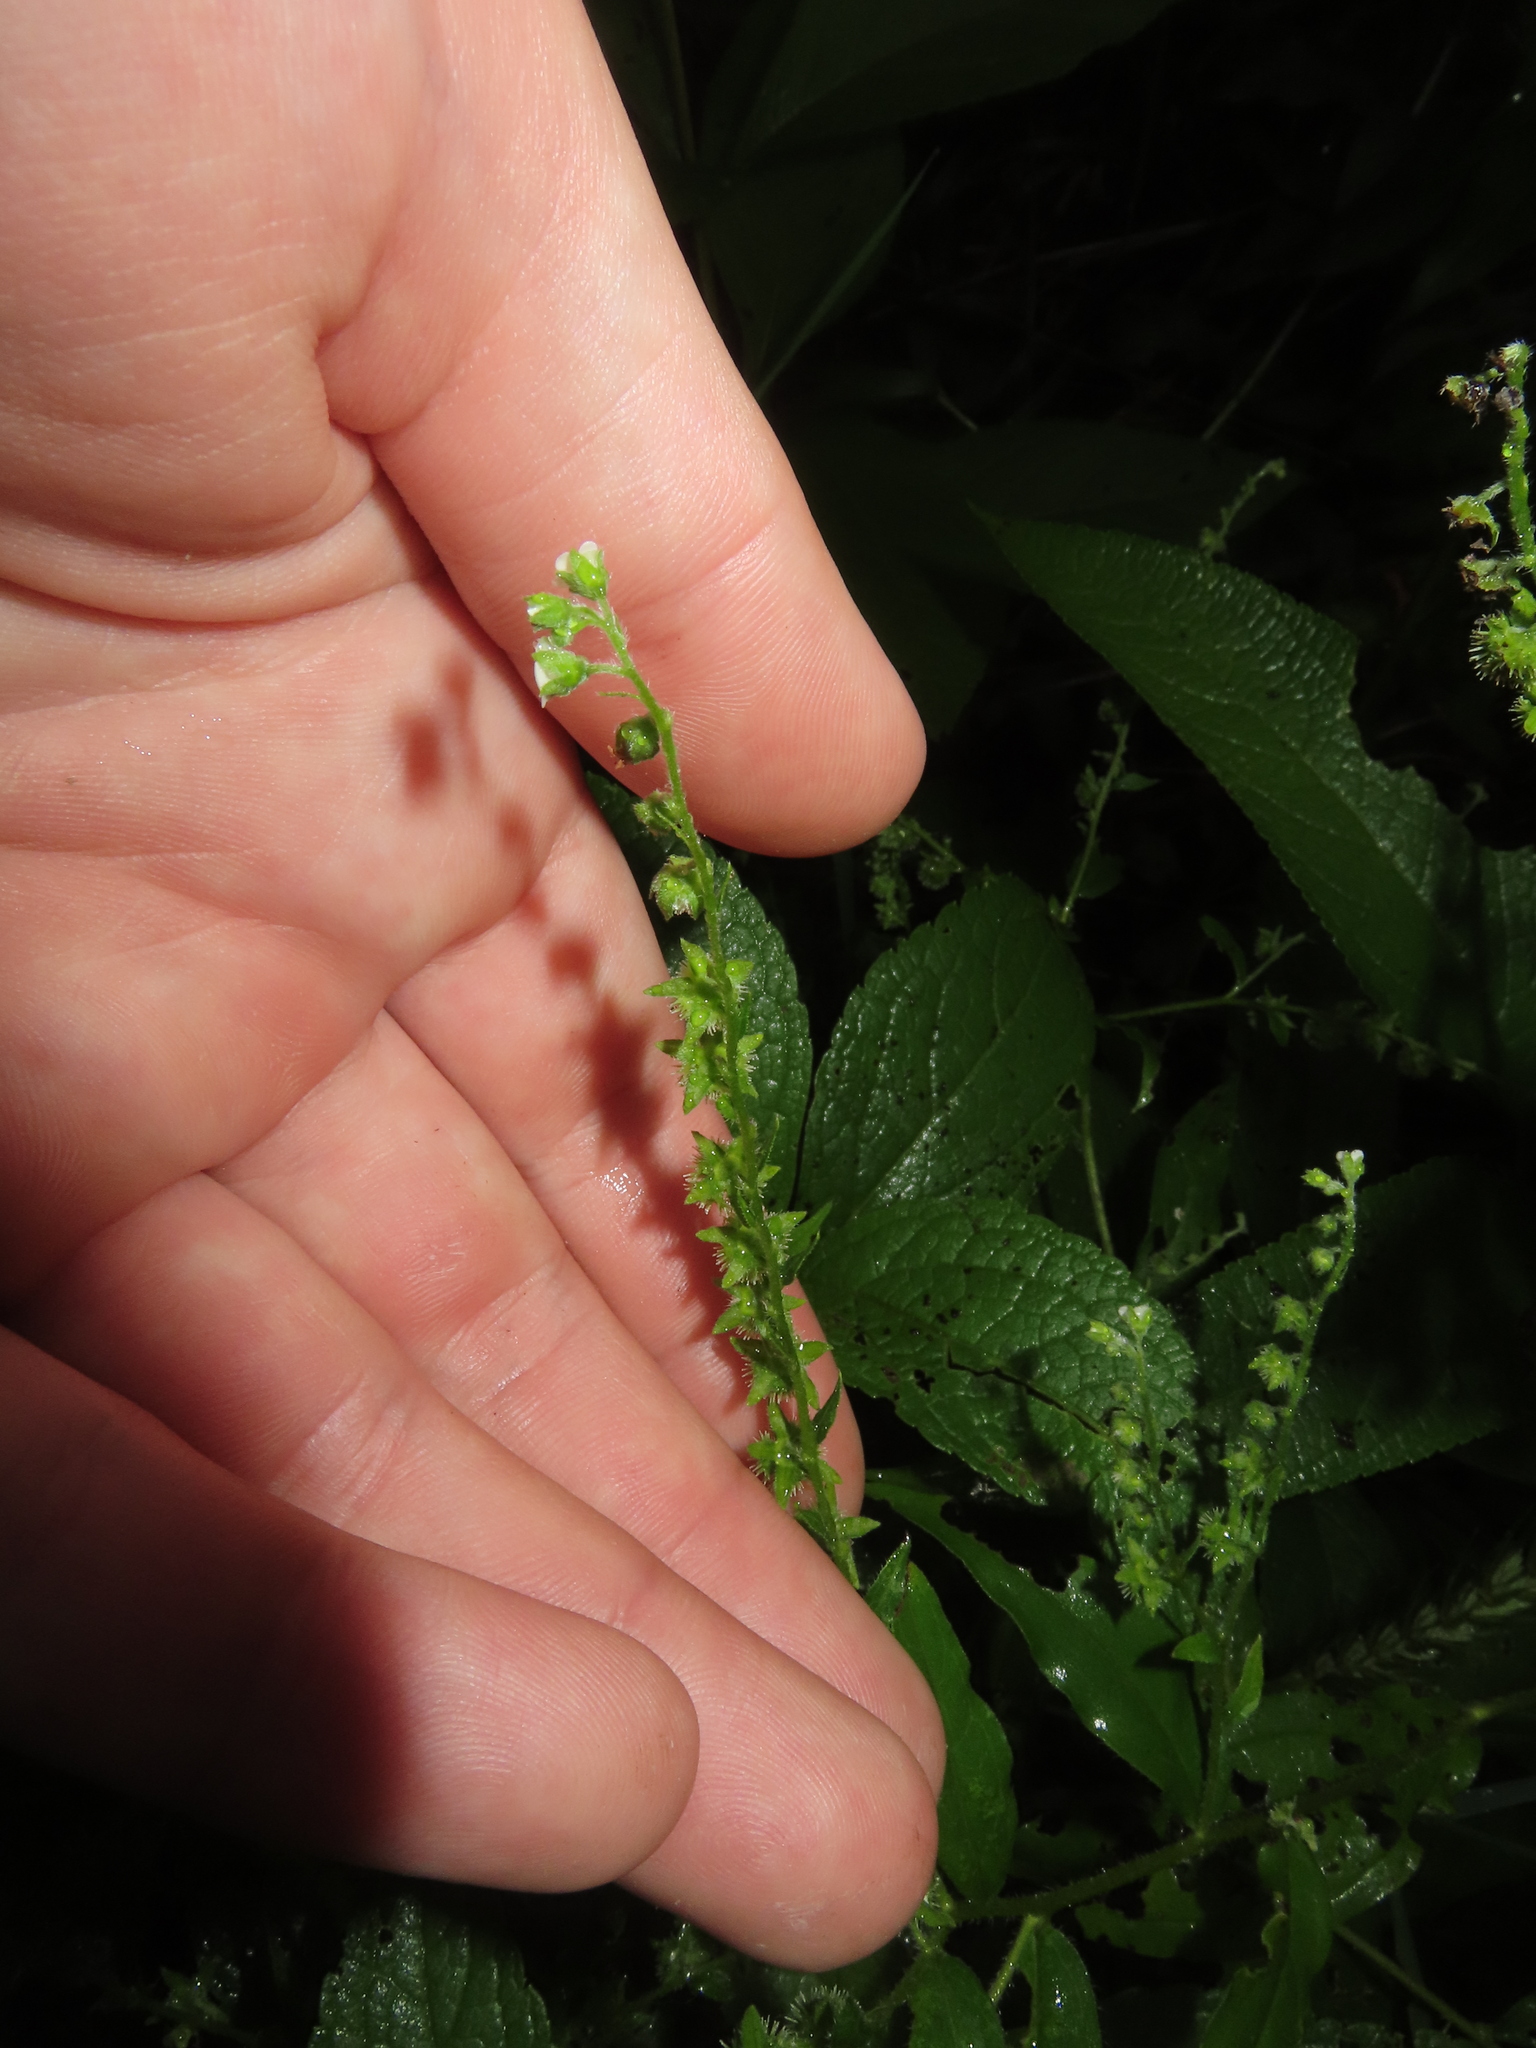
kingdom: Plantae
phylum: Tracheophyta
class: Magnoliopsida
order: Boraginales
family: Boraginaceae
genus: Hackelia
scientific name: Hackelia virginiana
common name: Beggar's-lice
